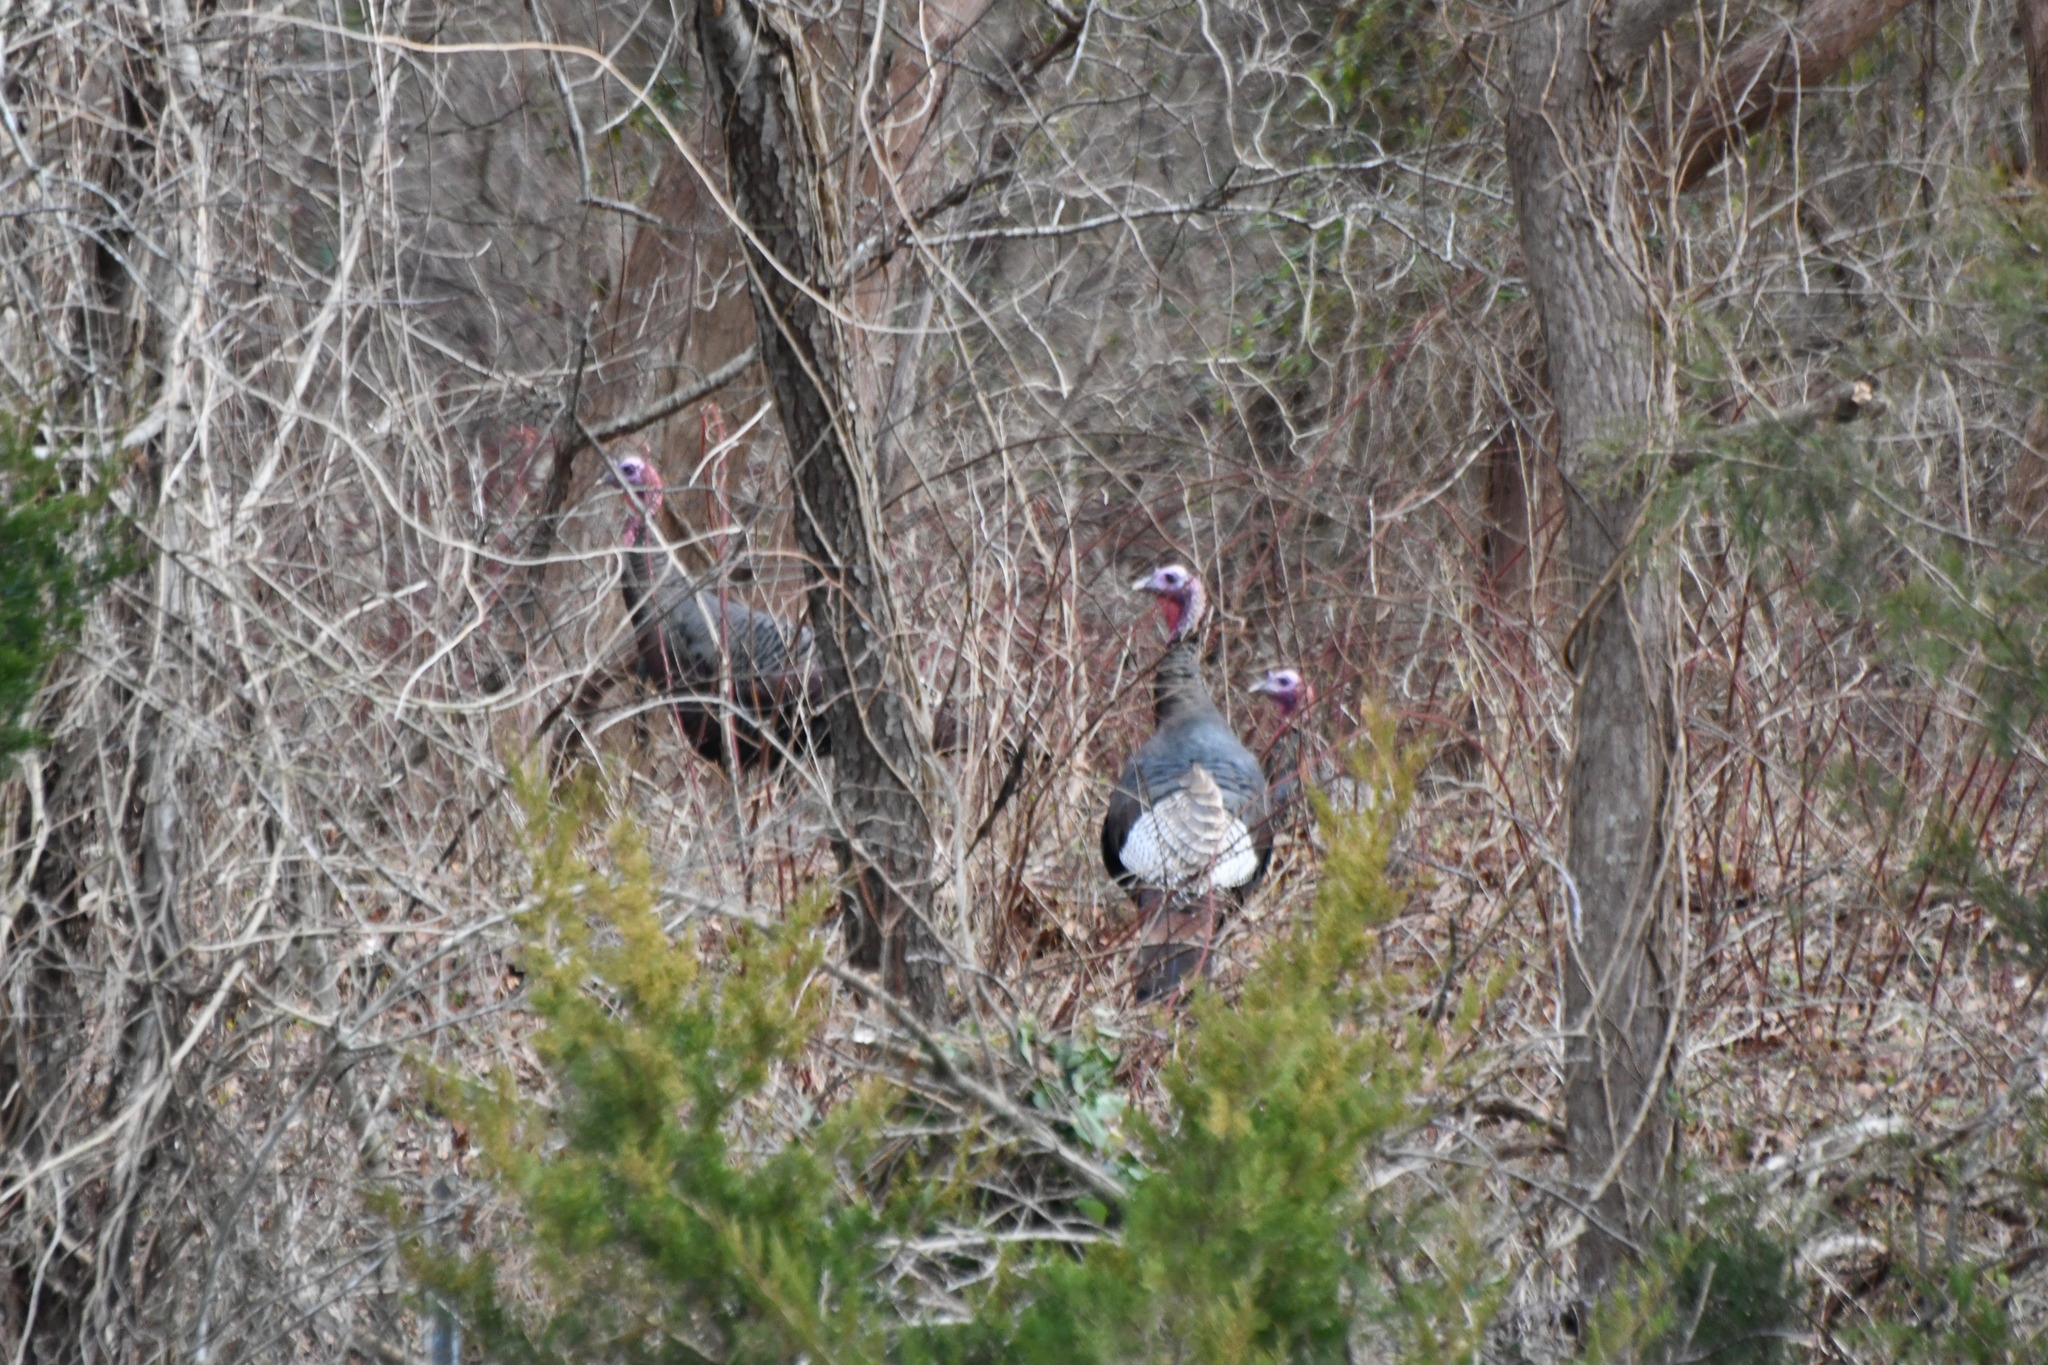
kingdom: Animalia
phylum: Chordata
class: Aves
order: Galliformes
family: Phasianidae
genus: Meleagris
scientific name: Meleagris gallopavo
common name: Wild turkey
